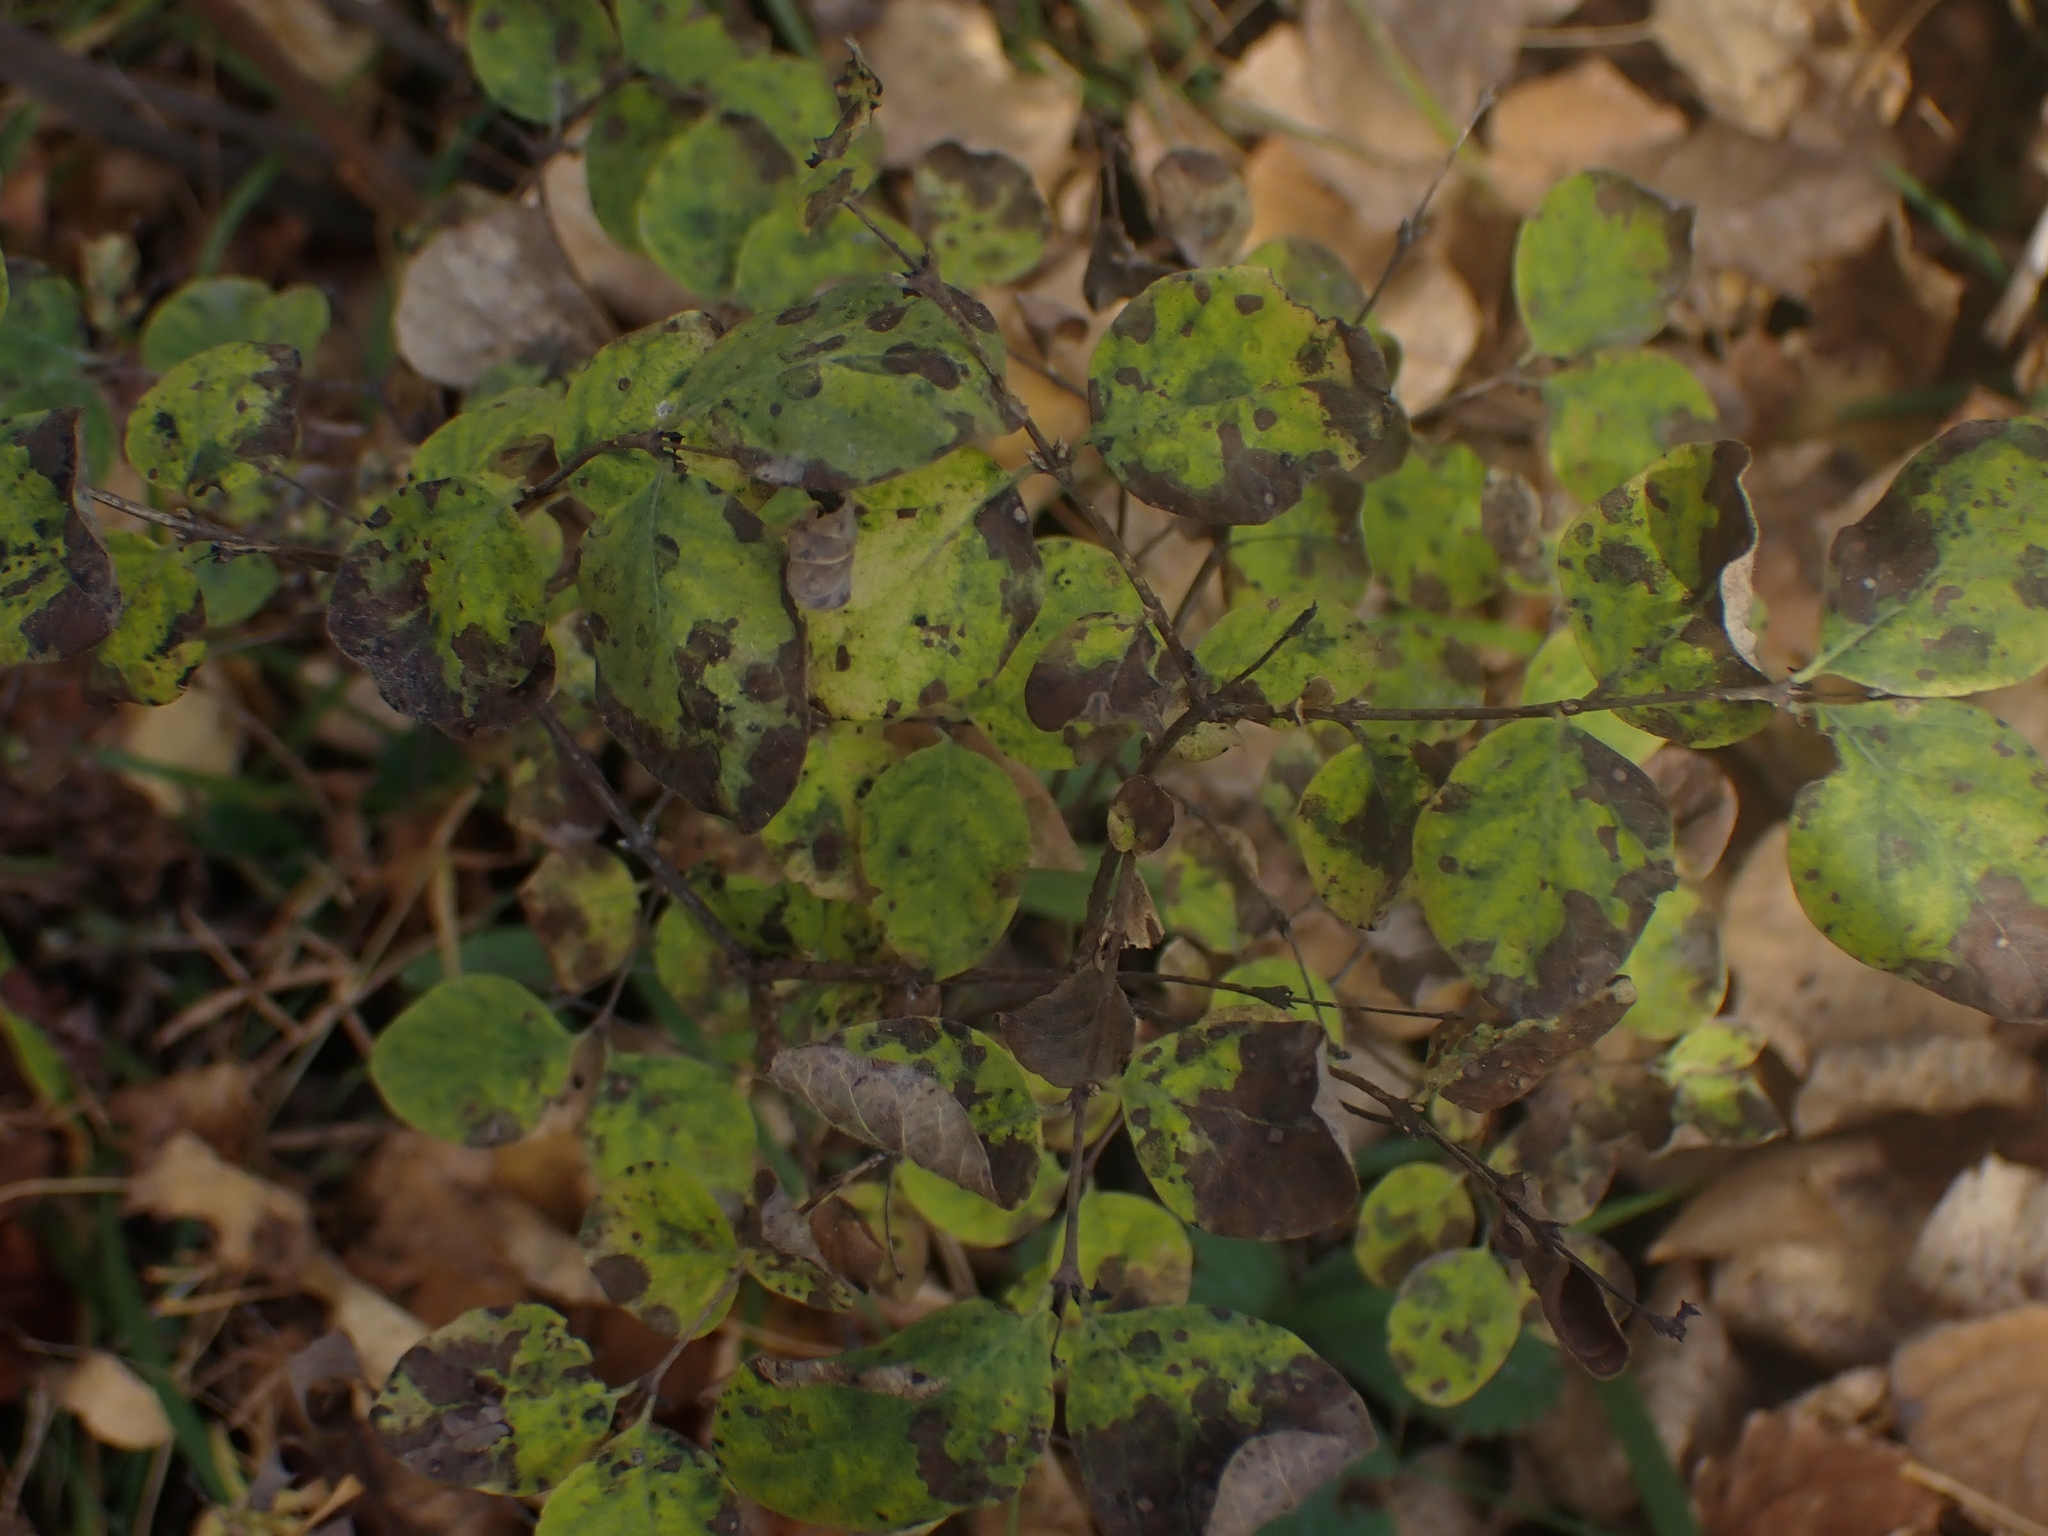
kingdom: Plantae
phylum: Tracheophyta
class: Magnoliopsida
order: Dipsacales
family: Caprifoliaceae
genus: Symphoricarpos
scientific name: Symphoricarpos albus
